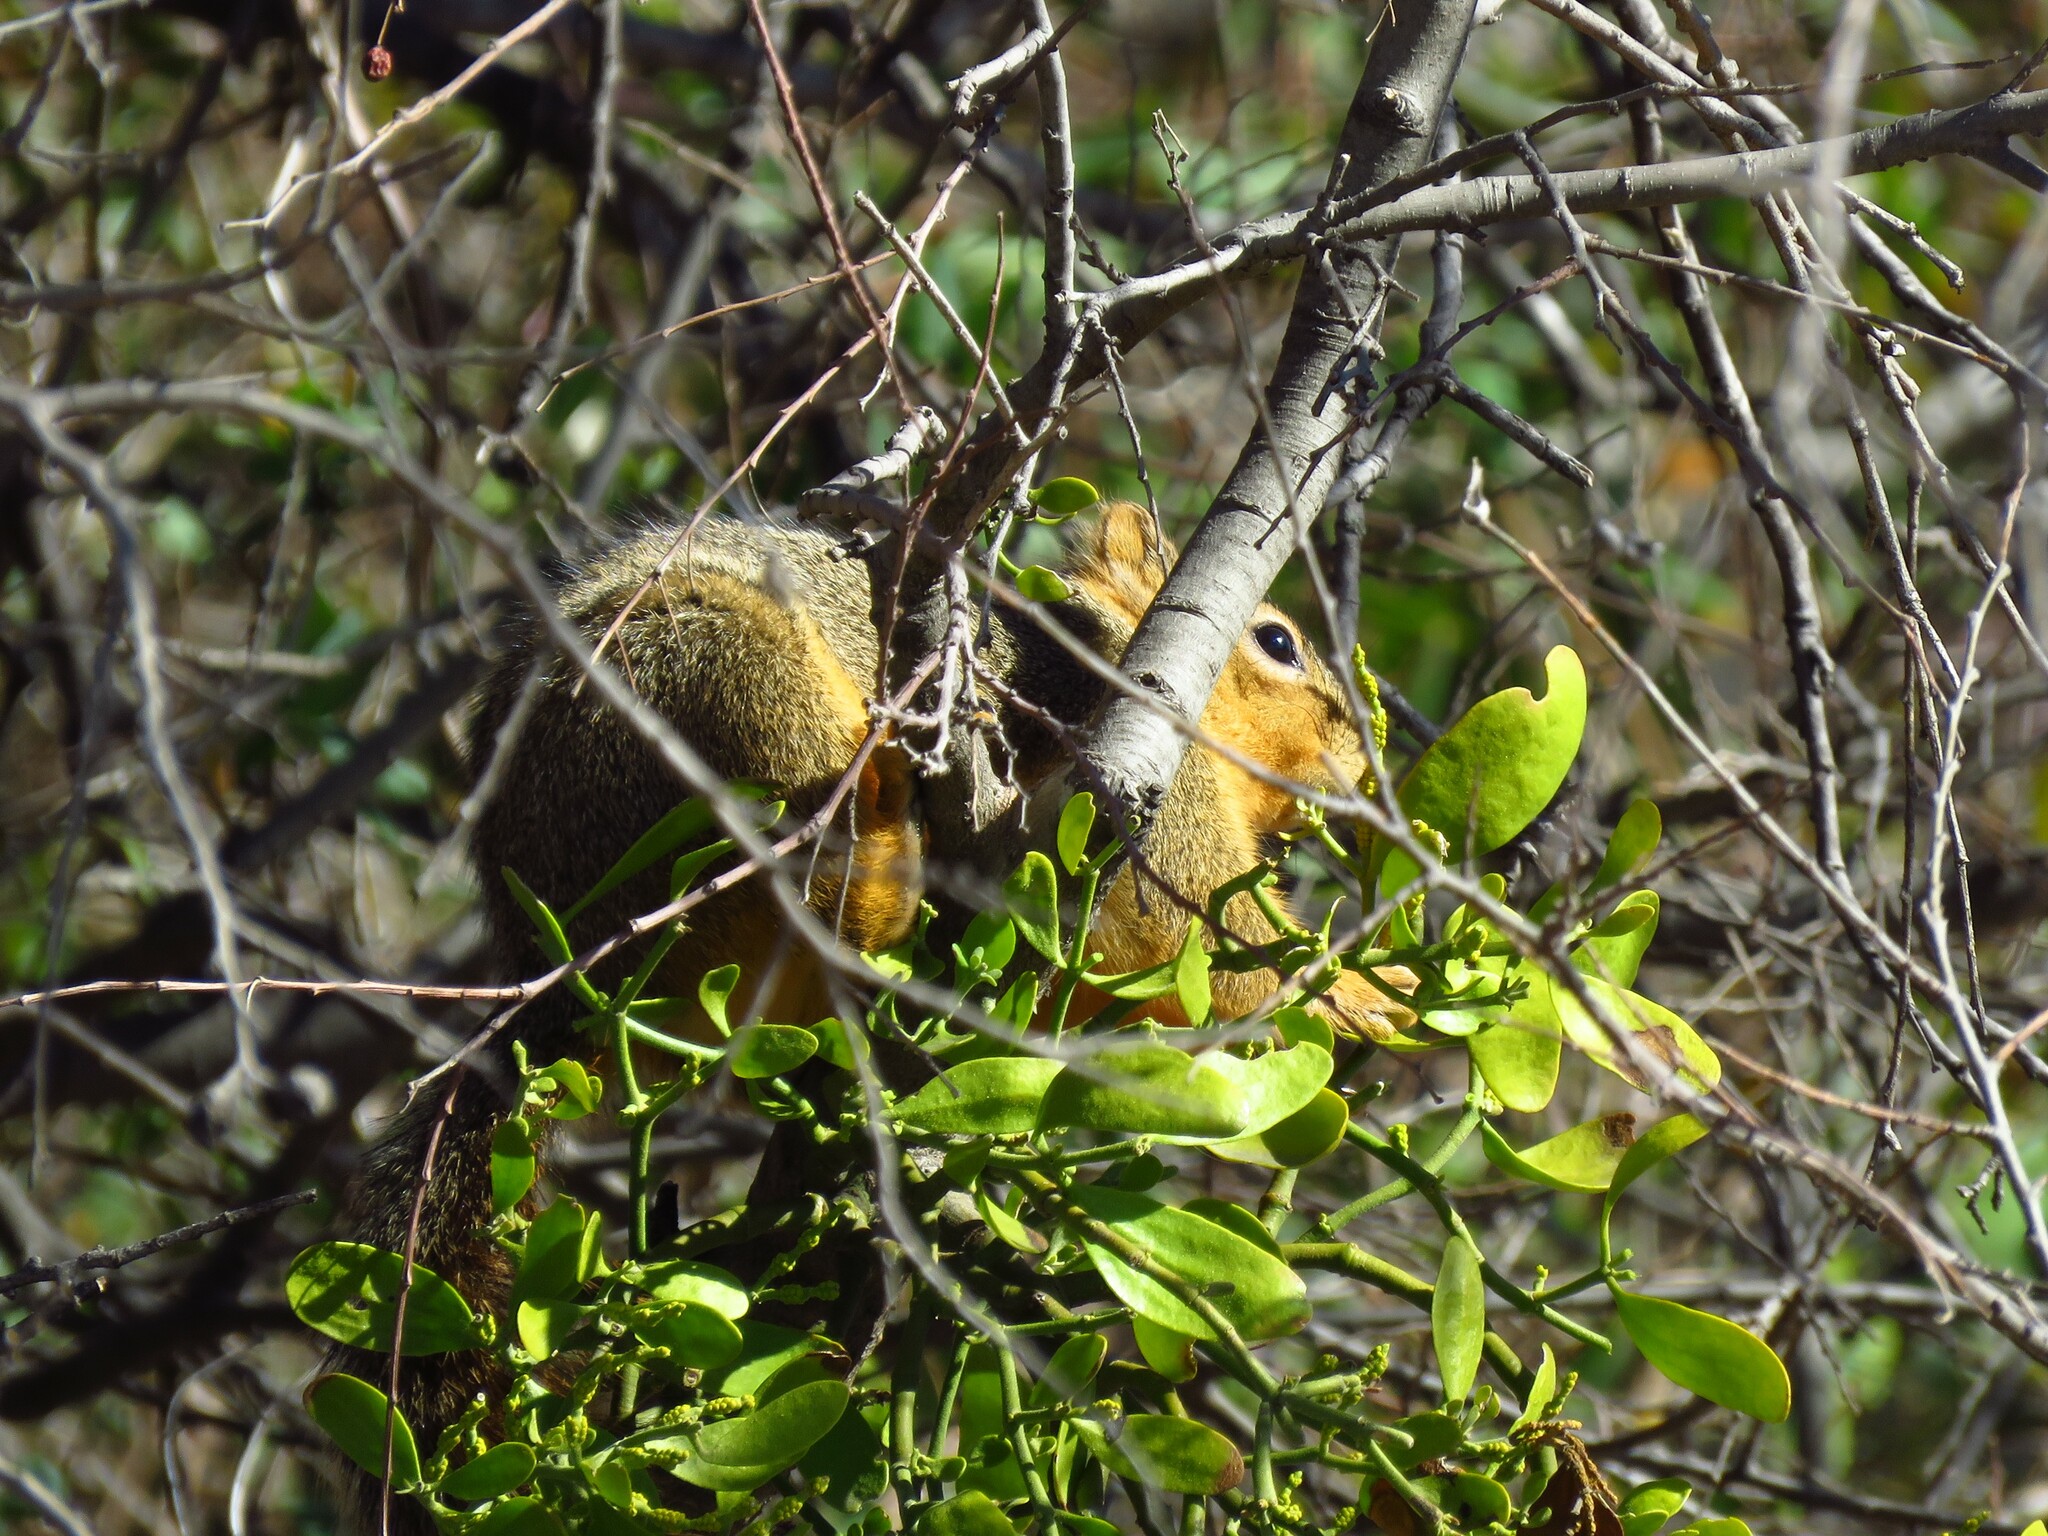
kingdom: Animalia
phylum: Chordata
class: Mammalia
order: Rodentia
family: Sciuridae
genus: Sciurus
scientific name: Sciurus niger
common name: Fox squirrel
